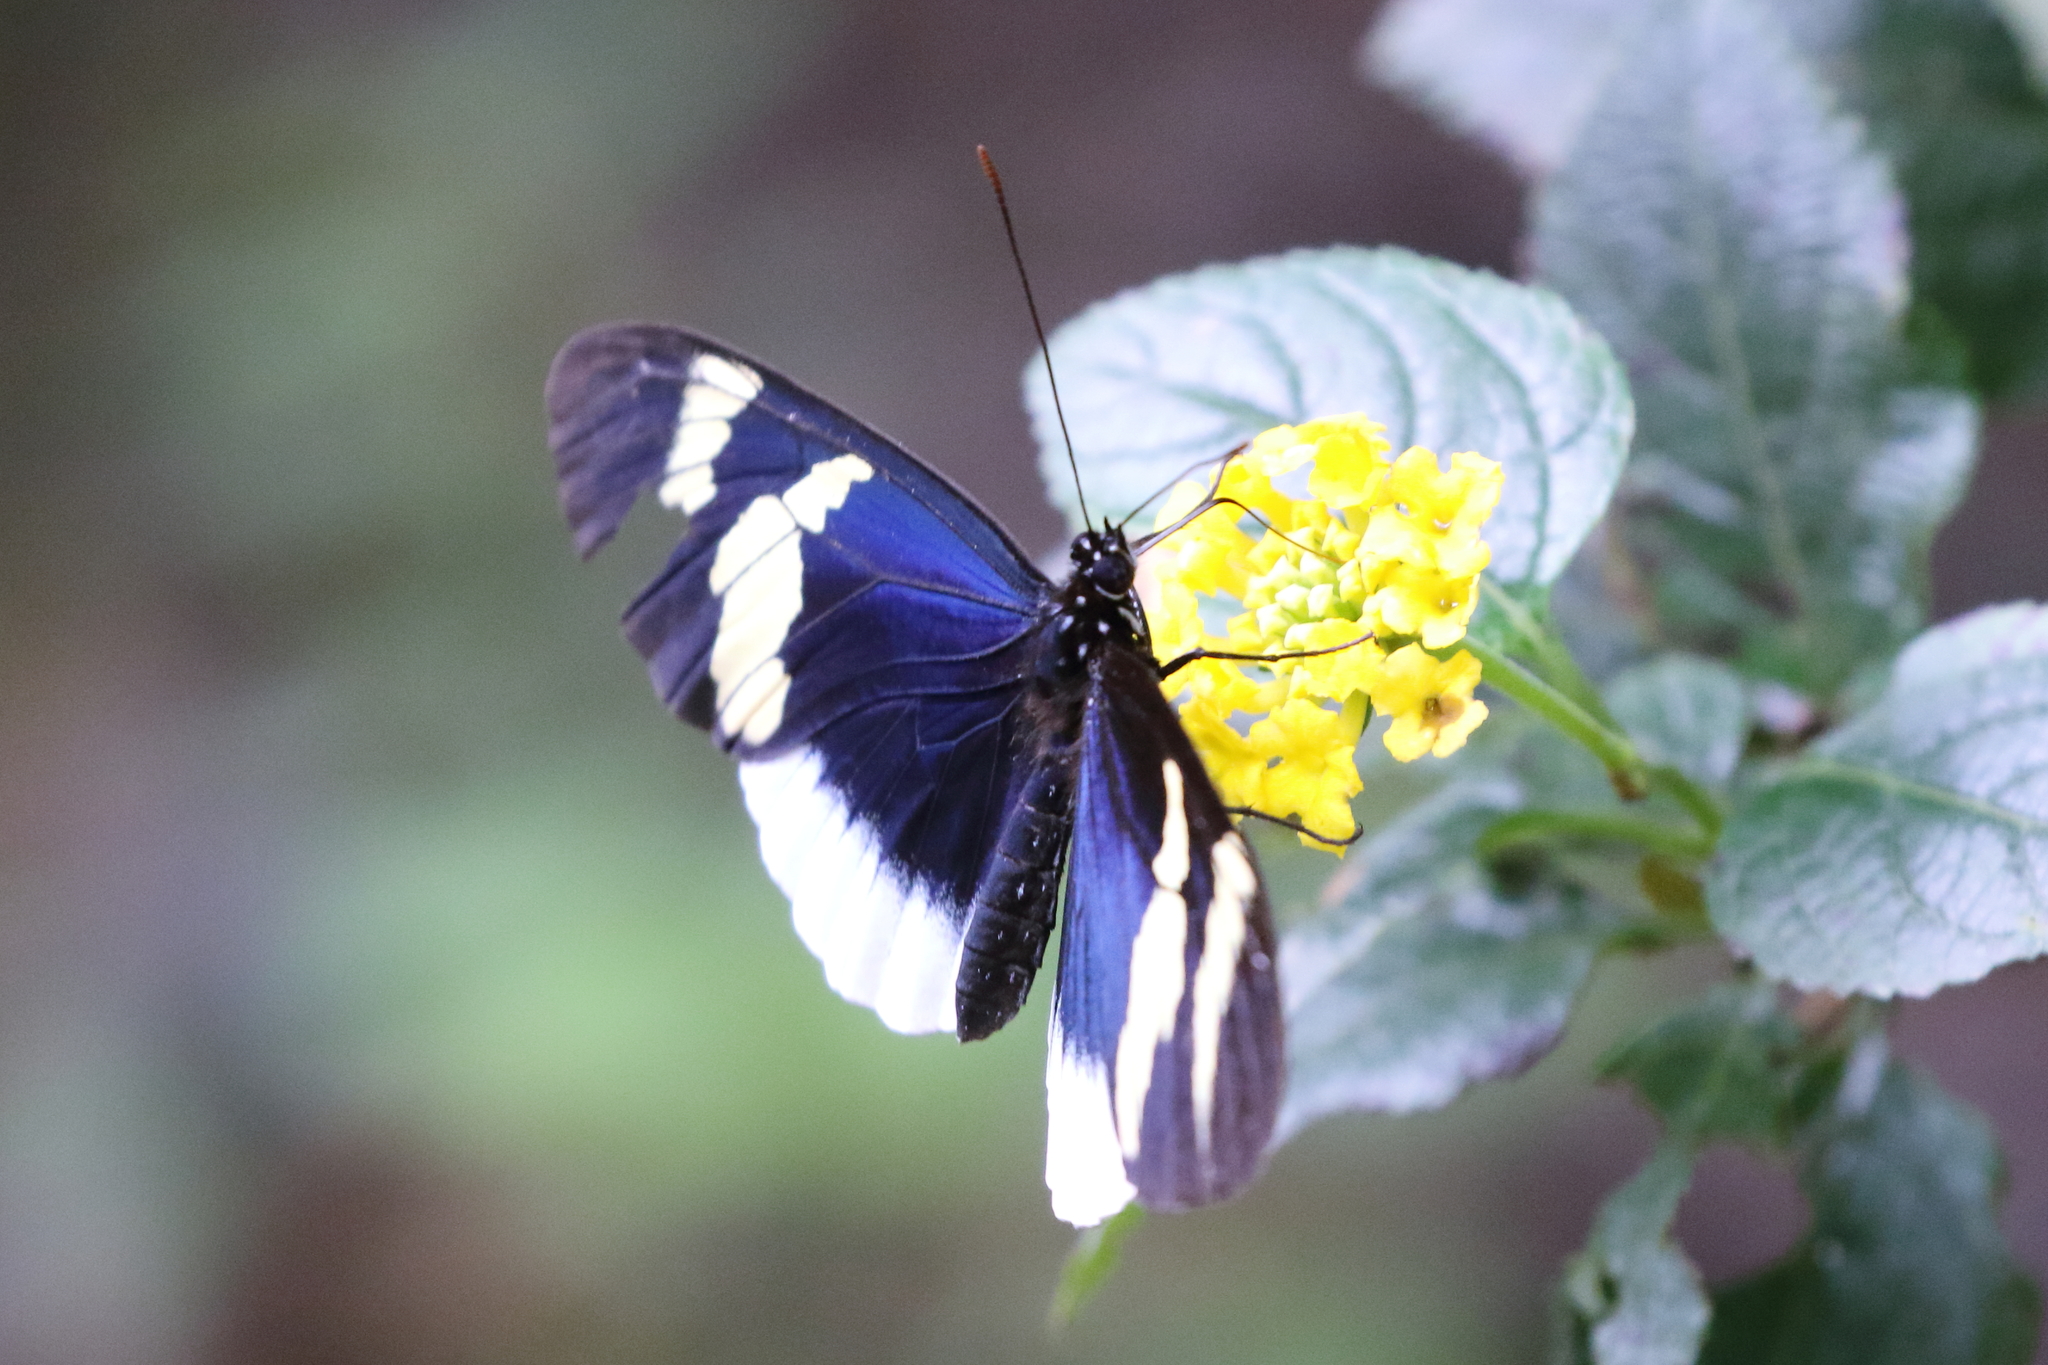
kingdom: Animalia
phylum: Arthropoda
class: Insecta
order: Lepidoptera
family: Nymphalidae
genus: Heliconius
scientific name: Heliconius eleuchia
